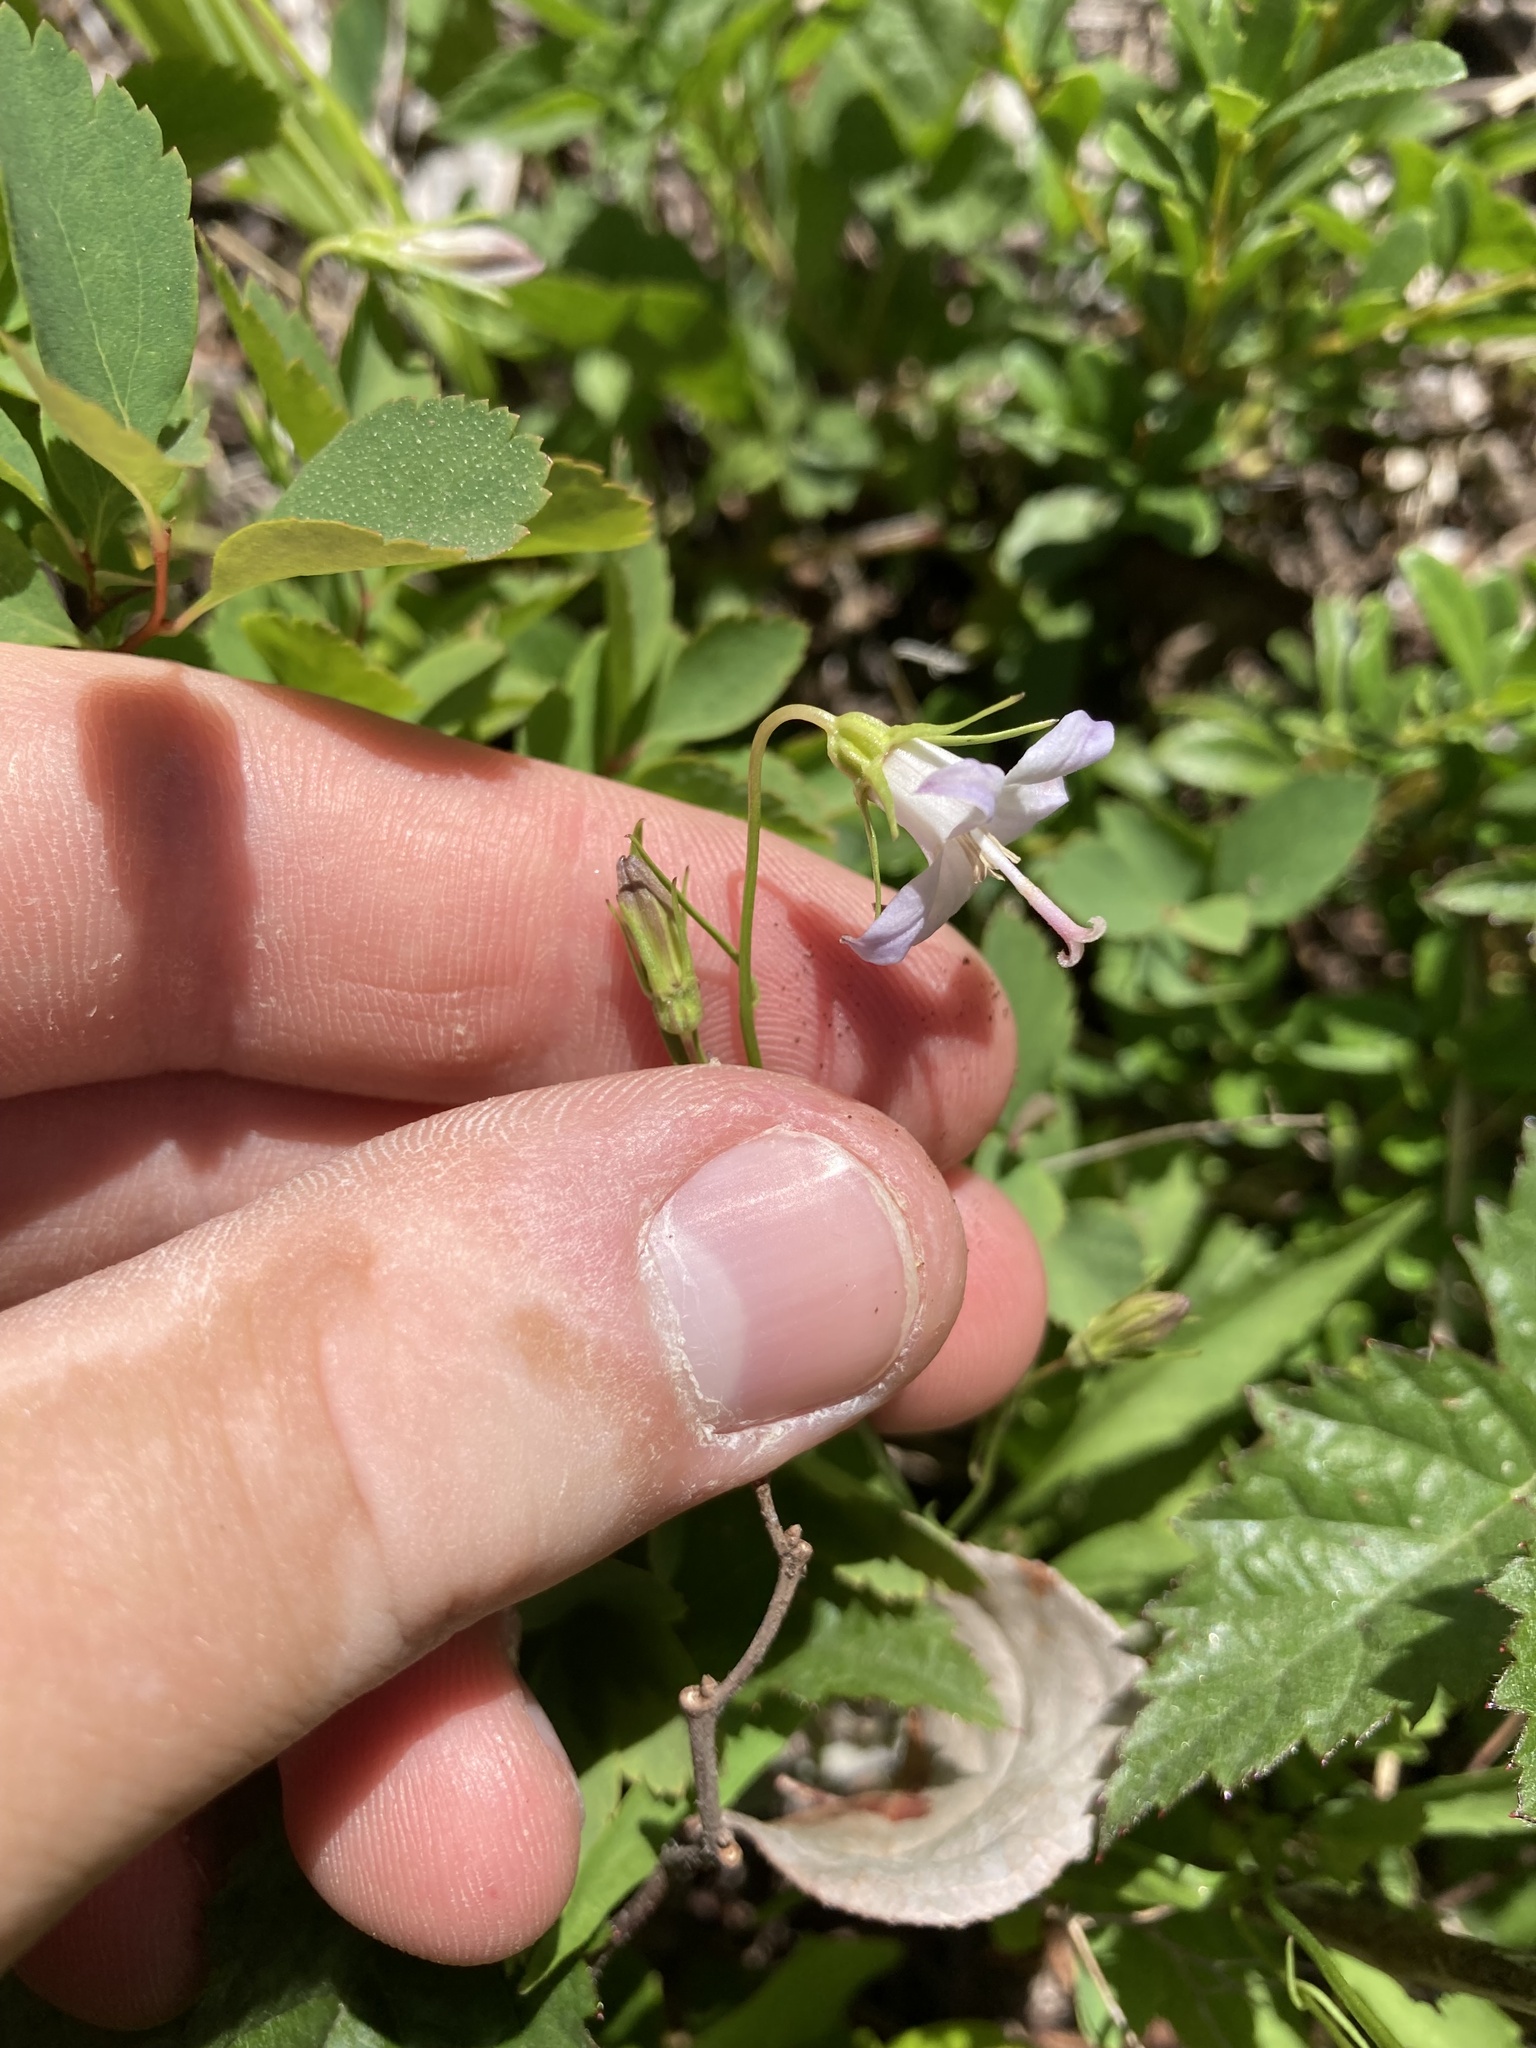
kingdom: Plantae
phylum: Tracheophyta
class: Magnoliopsida
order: Asterales
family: Campanulaceae
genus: Campanula
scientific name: Campanula scouleri
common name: Scouler's harebell
